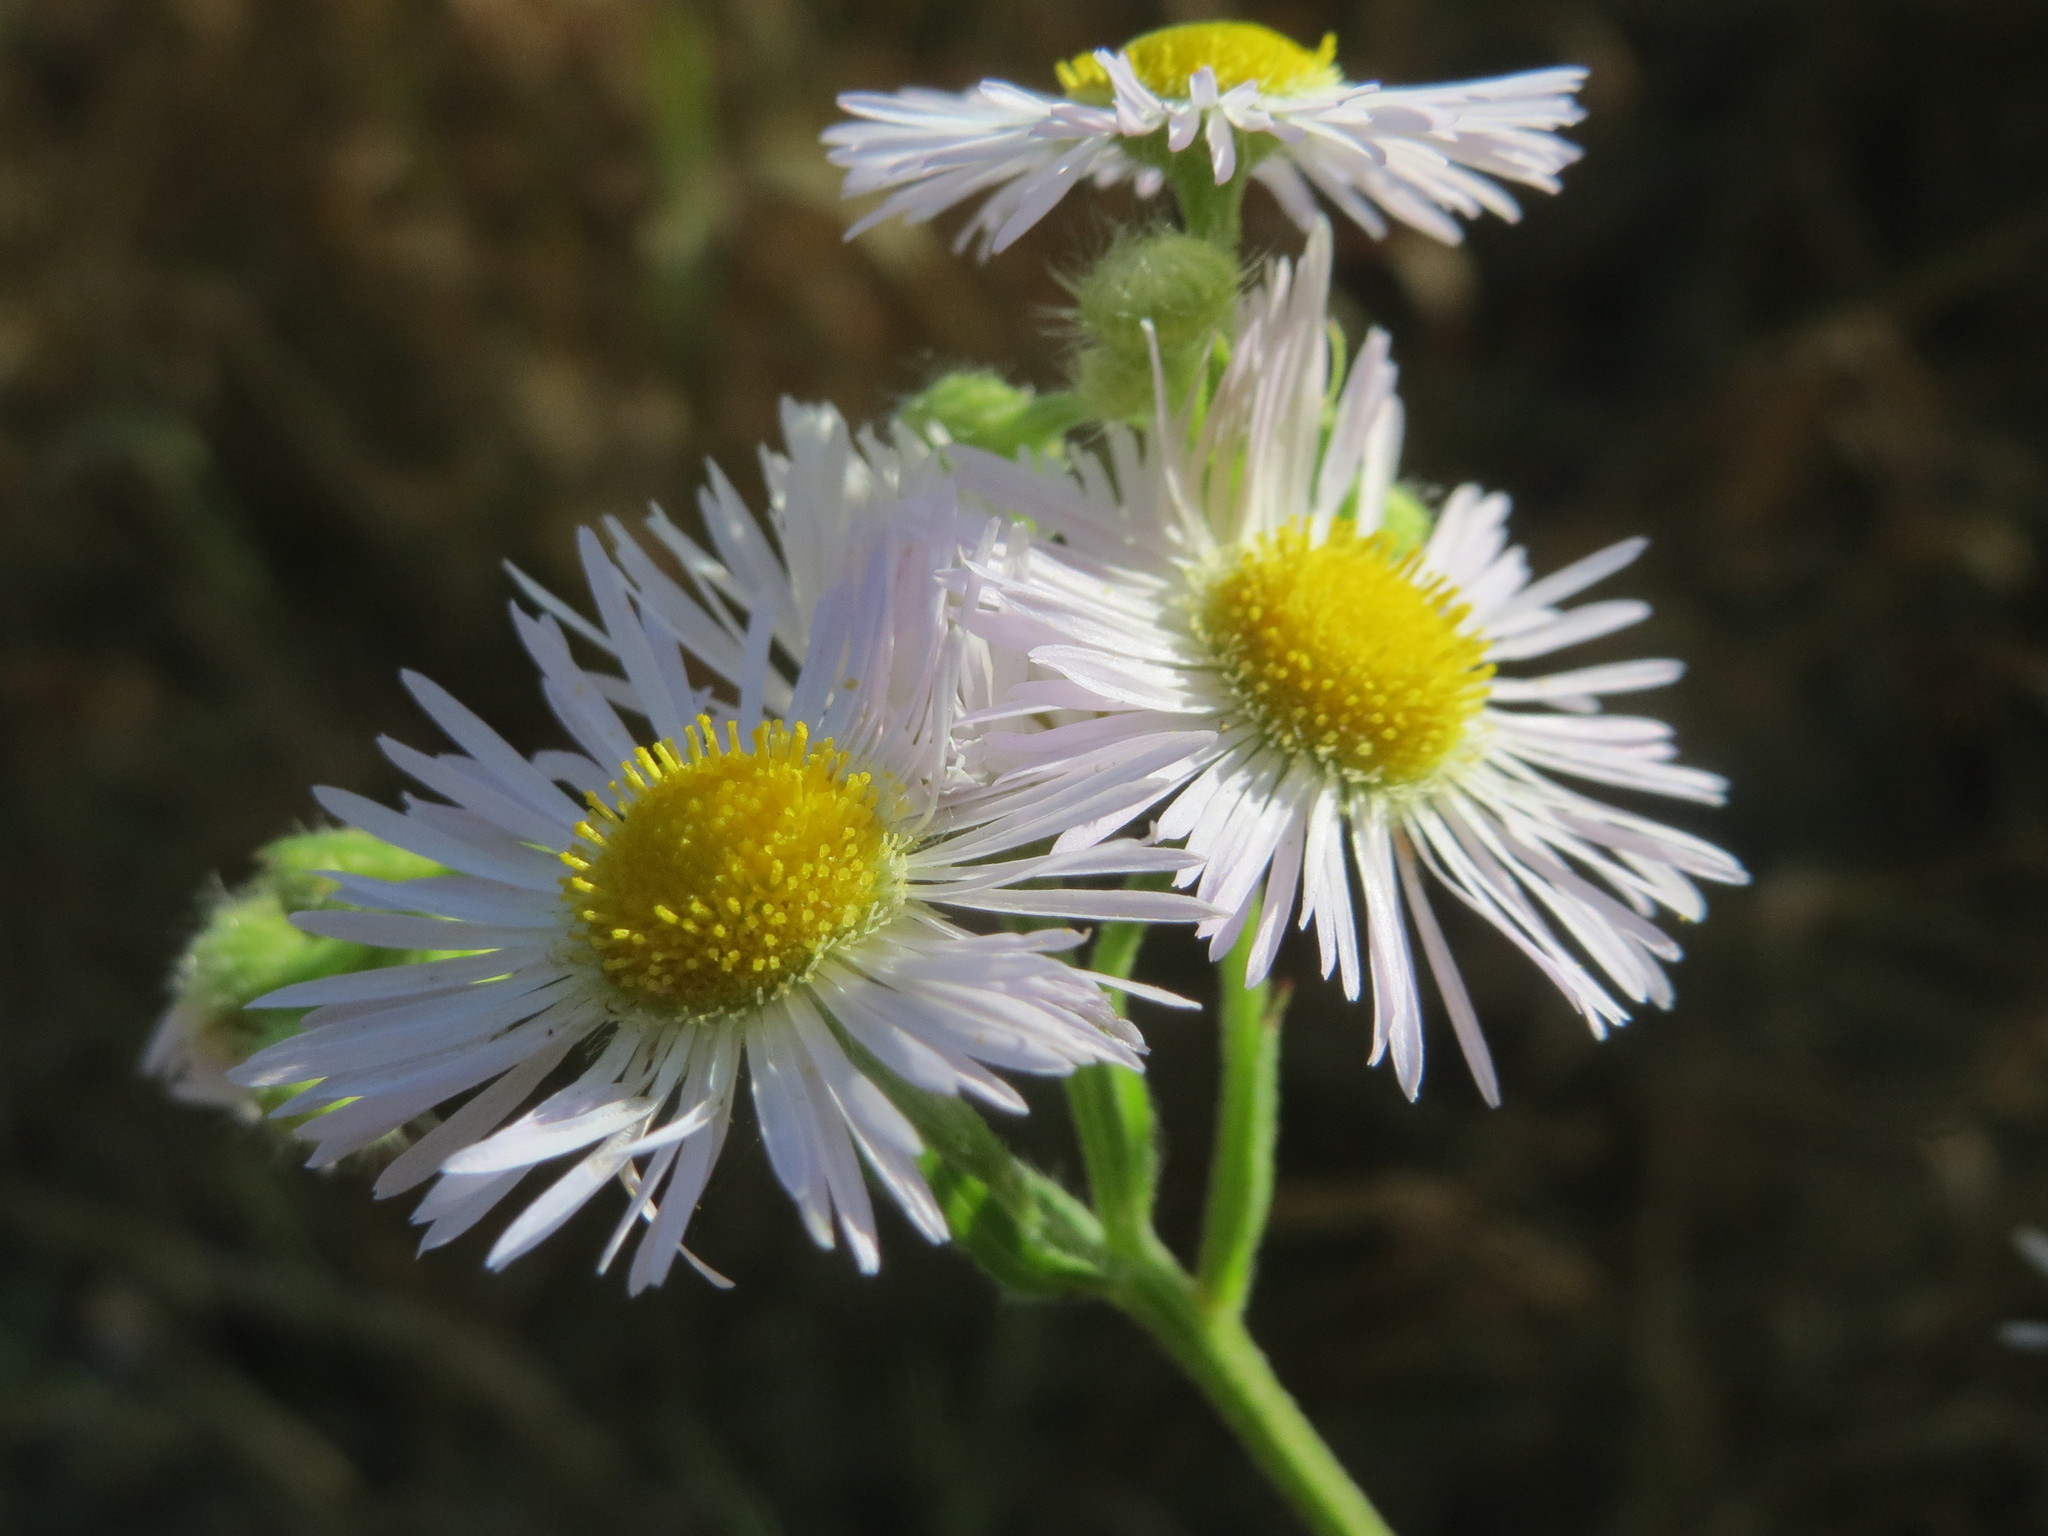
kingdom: Plantae
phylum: Tracheophyta
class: Magnoliopsida
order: Asterales
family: Asteraceae
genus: Erigeron
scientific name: Erigeron annuus
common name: Tall fleabane
